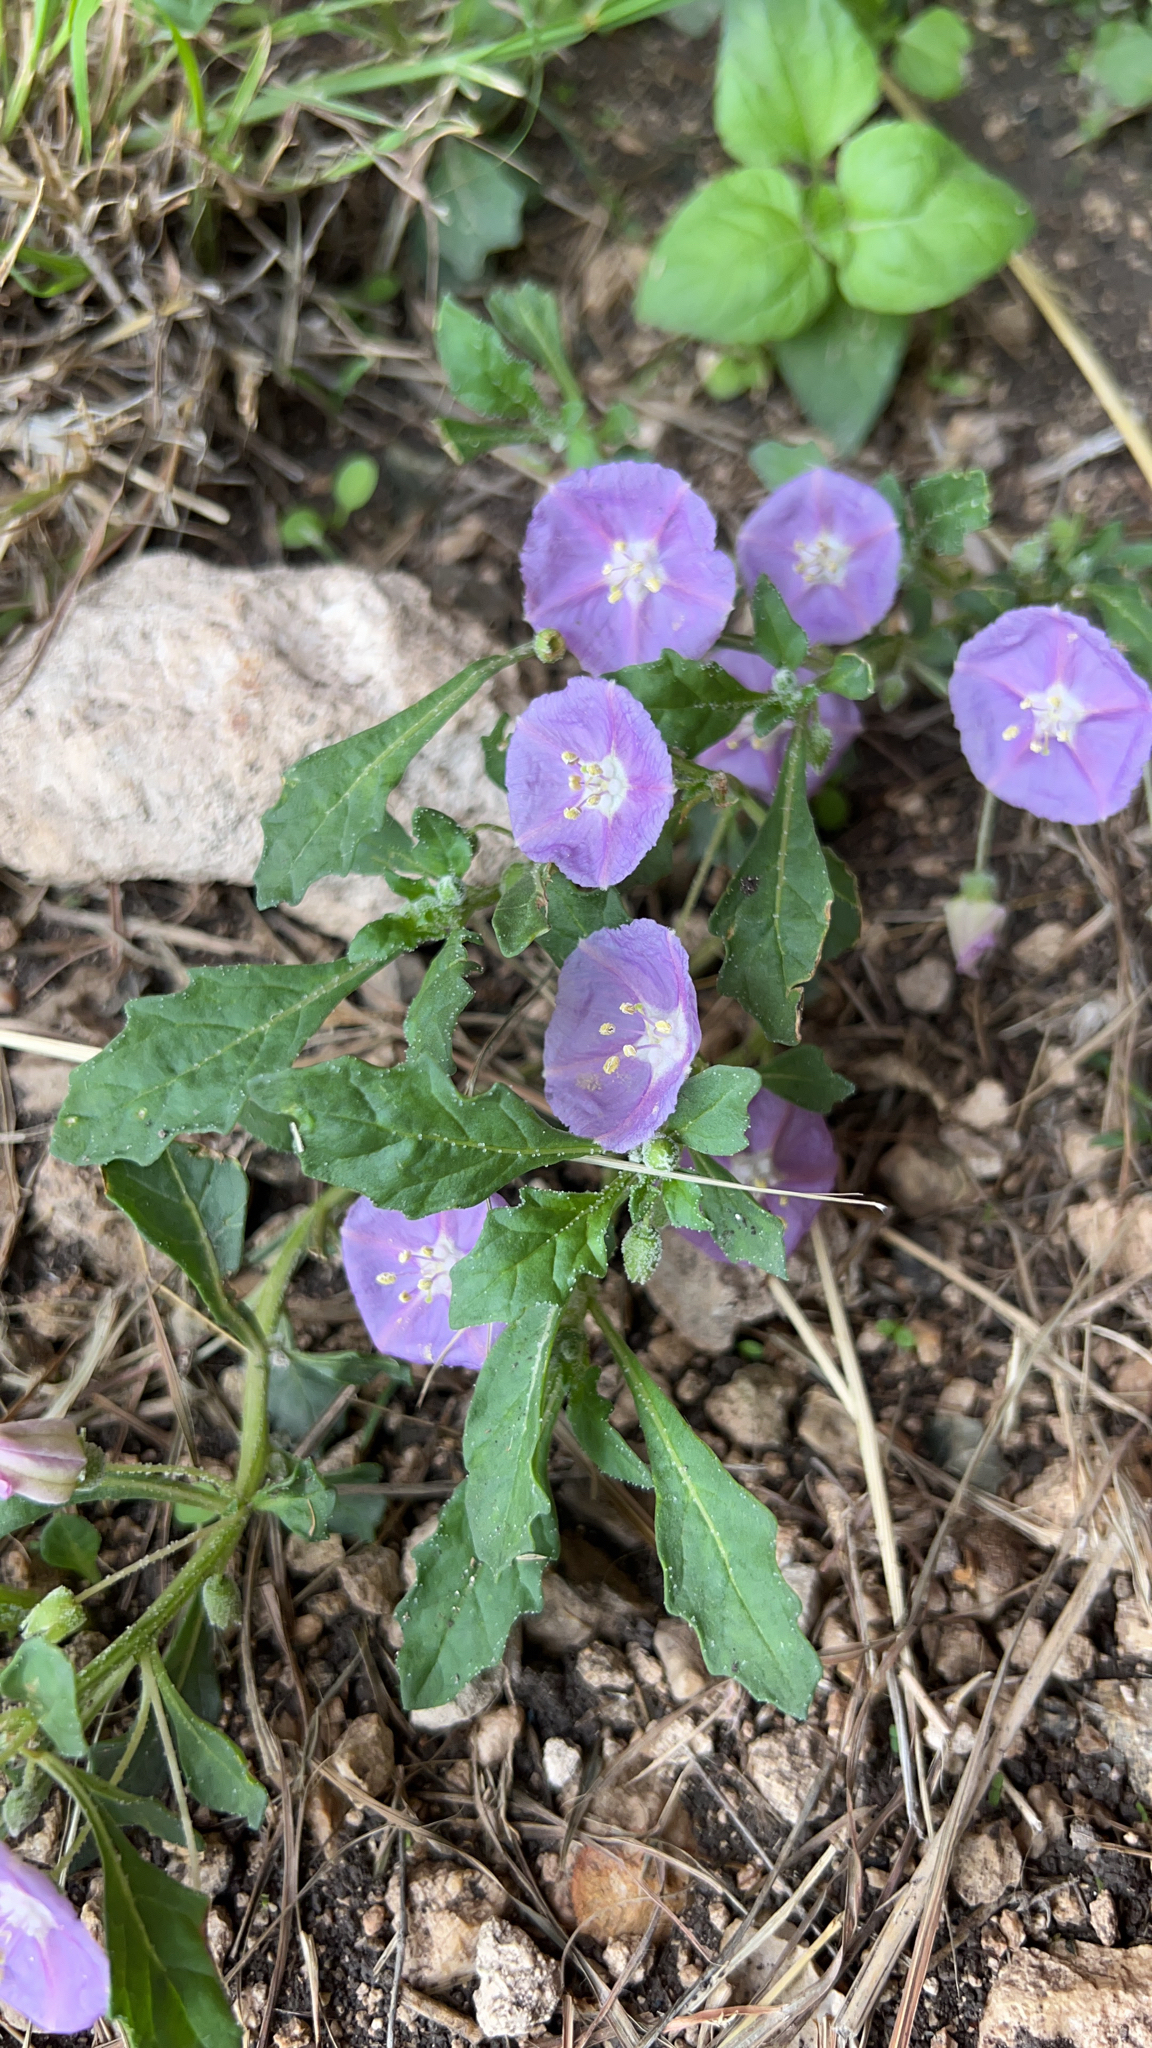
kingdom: Plantae
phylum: Tracheophyta
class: Magnoliopsida
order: Solanales
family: Solanaceae
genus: Quincula
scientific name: Quincula lobata
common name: Purple-ground-cherry
